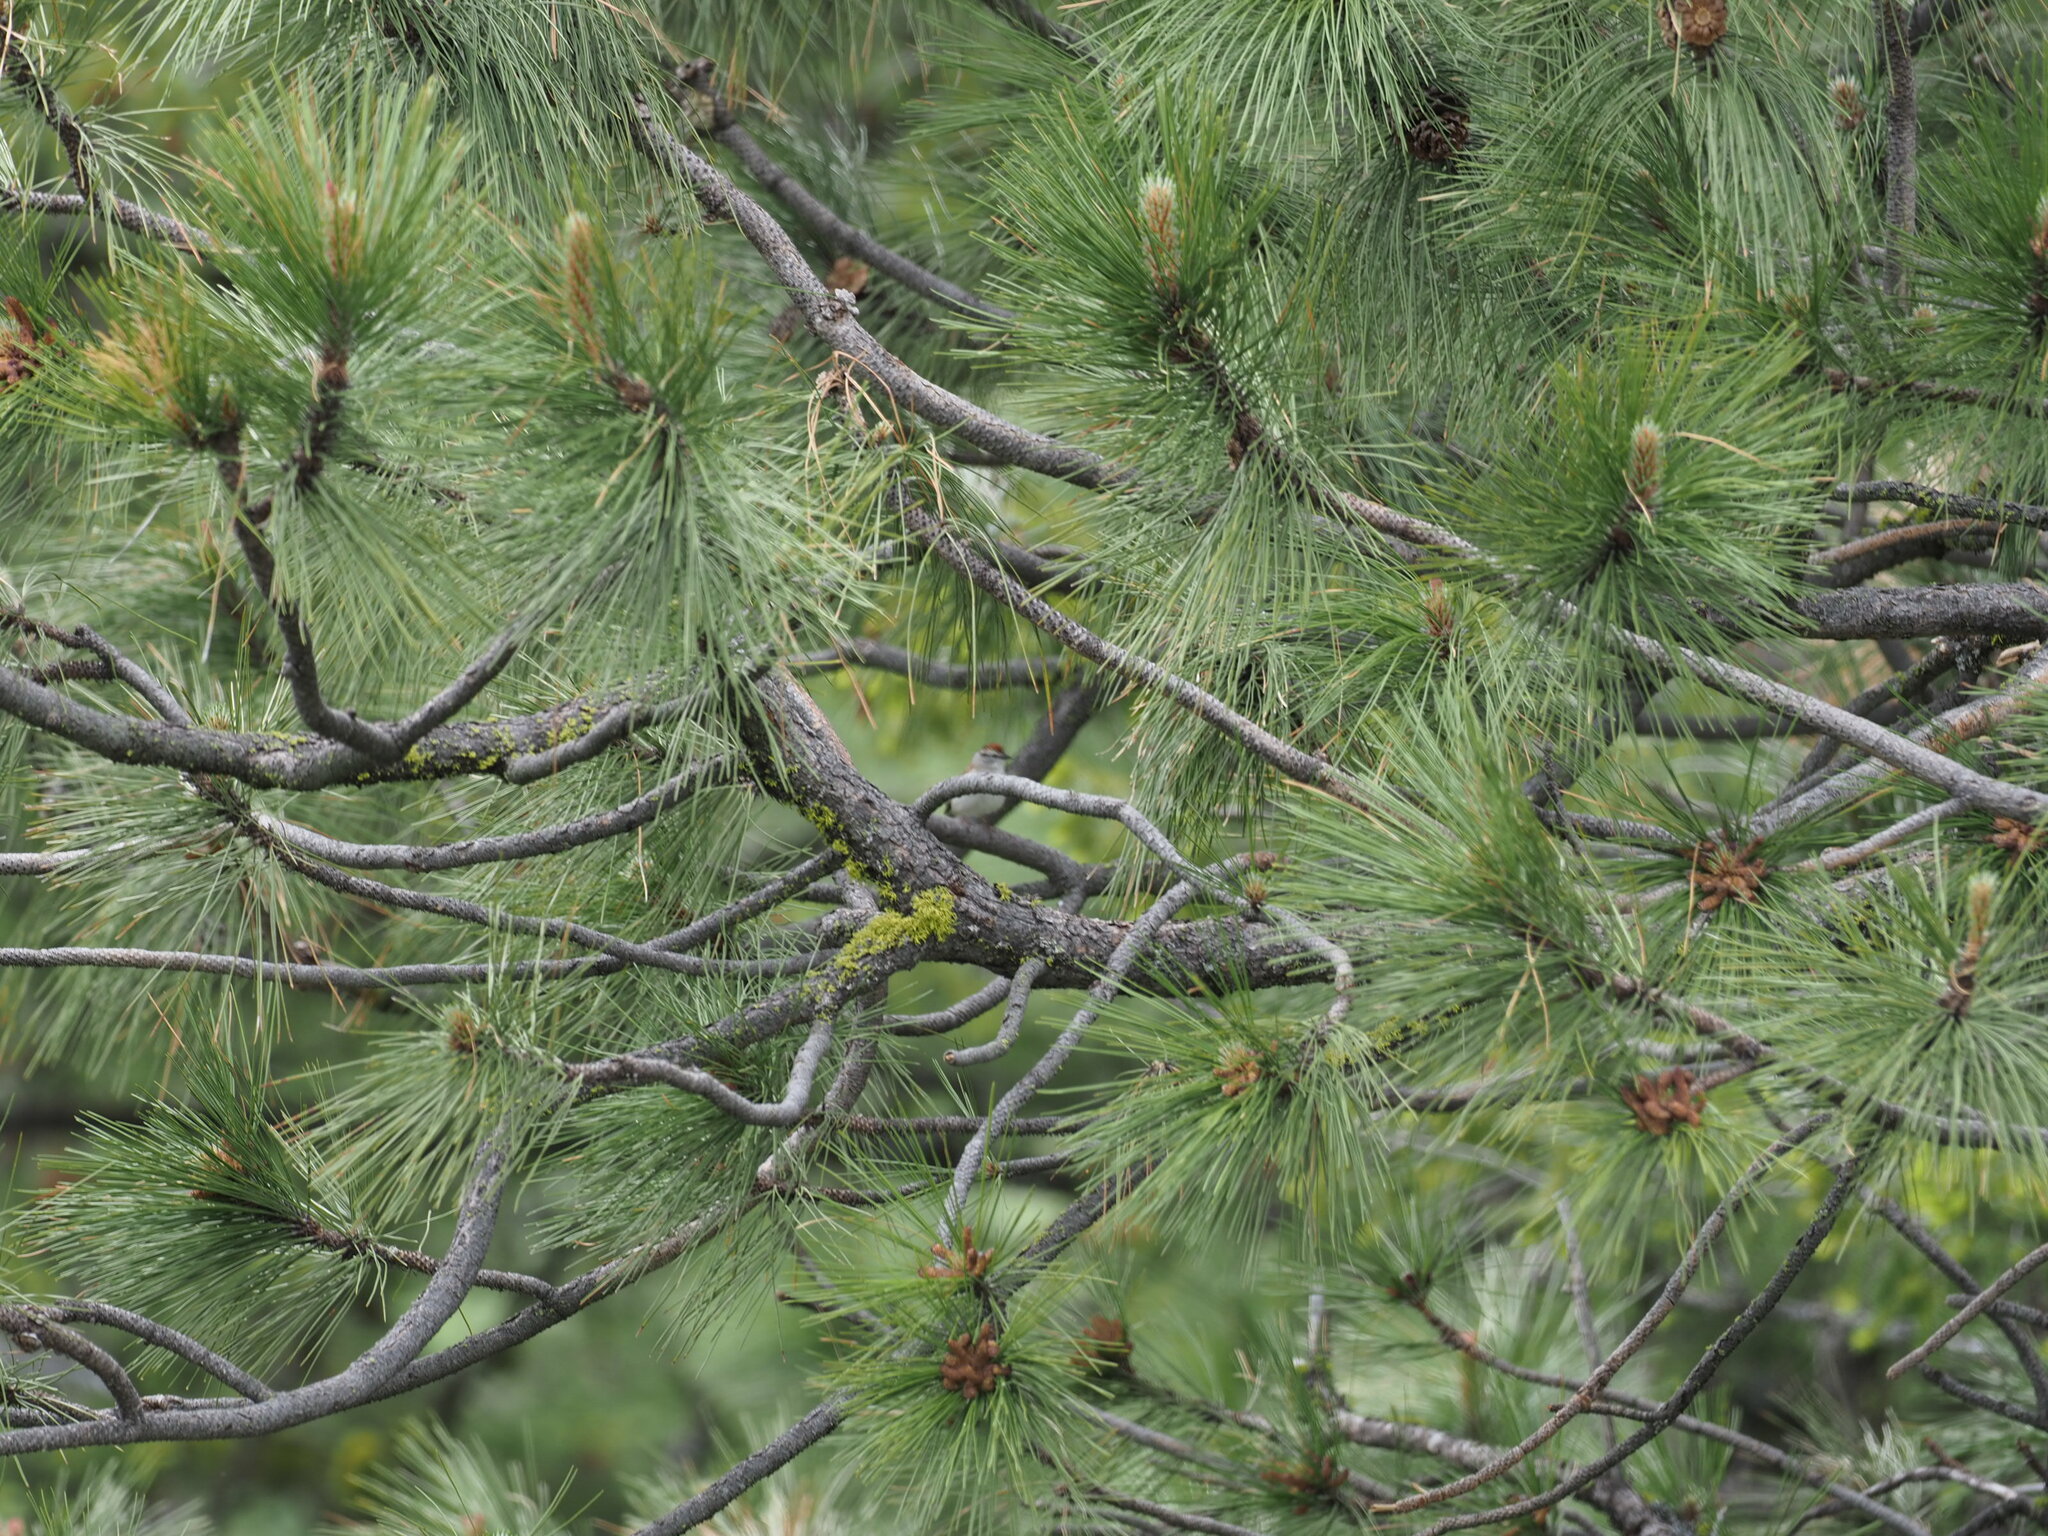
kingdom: Animalia
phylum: Chordata
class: Aves
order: Passeriformes
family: Passerellidae
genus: Spizella
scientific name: Spizella passerina
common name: Chipping sparrow
